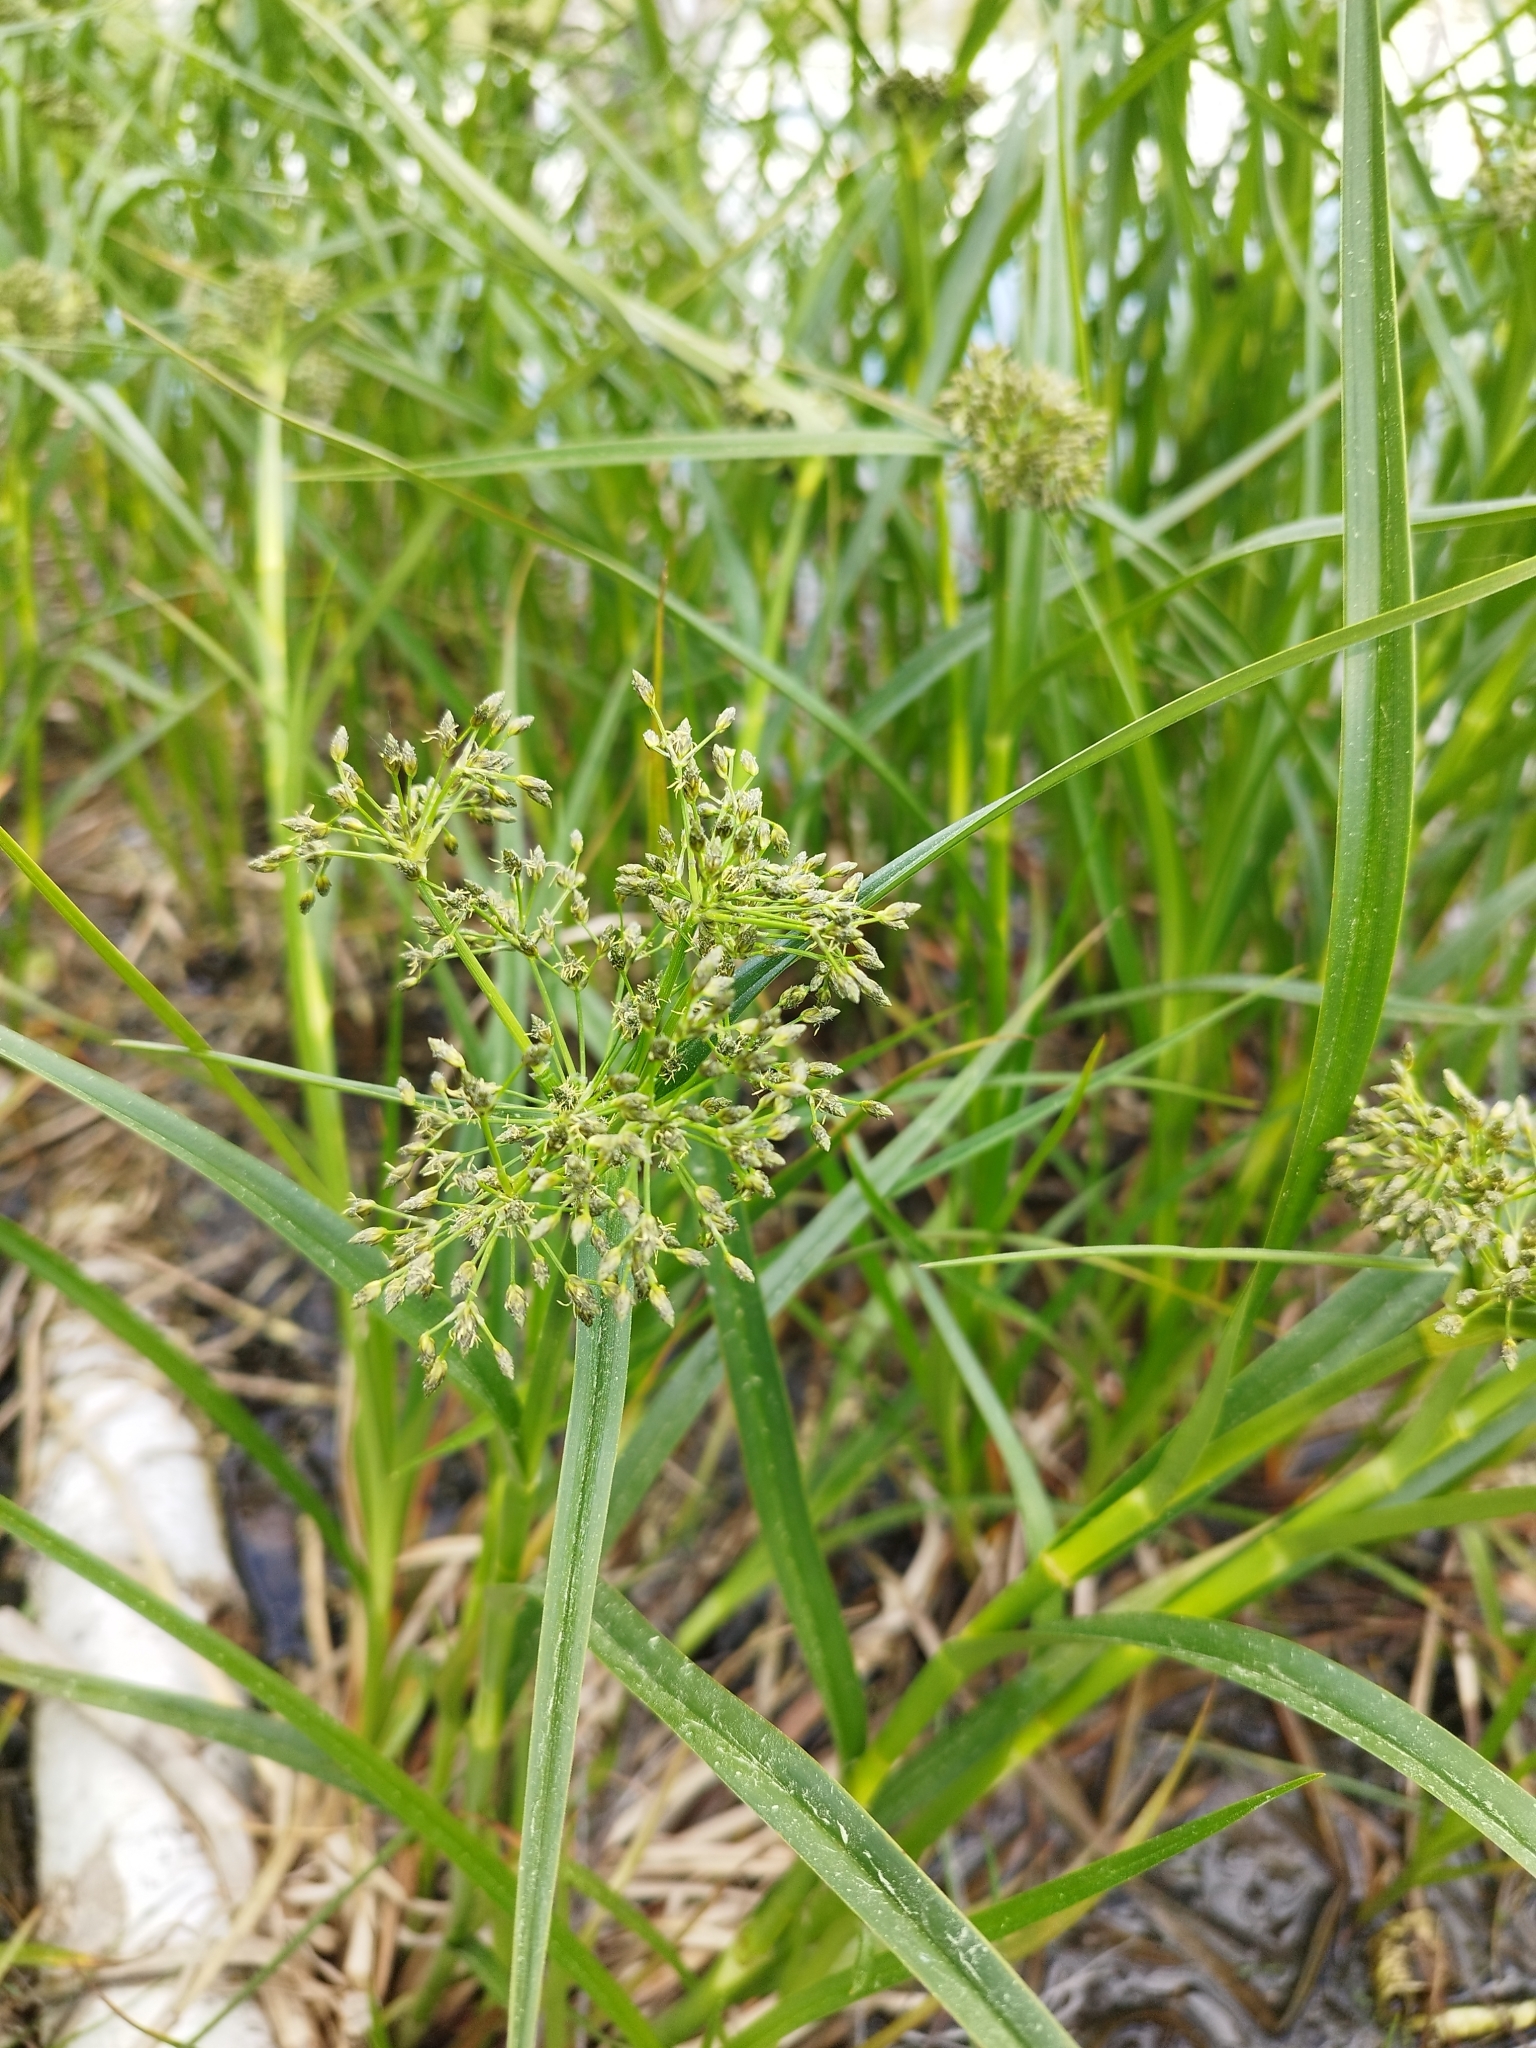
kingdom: Plantae
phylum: Tracheophyta
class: Liliopsida
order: Poales
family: Cyperaceae
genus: Scirpus
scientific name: Scirpus radicans
